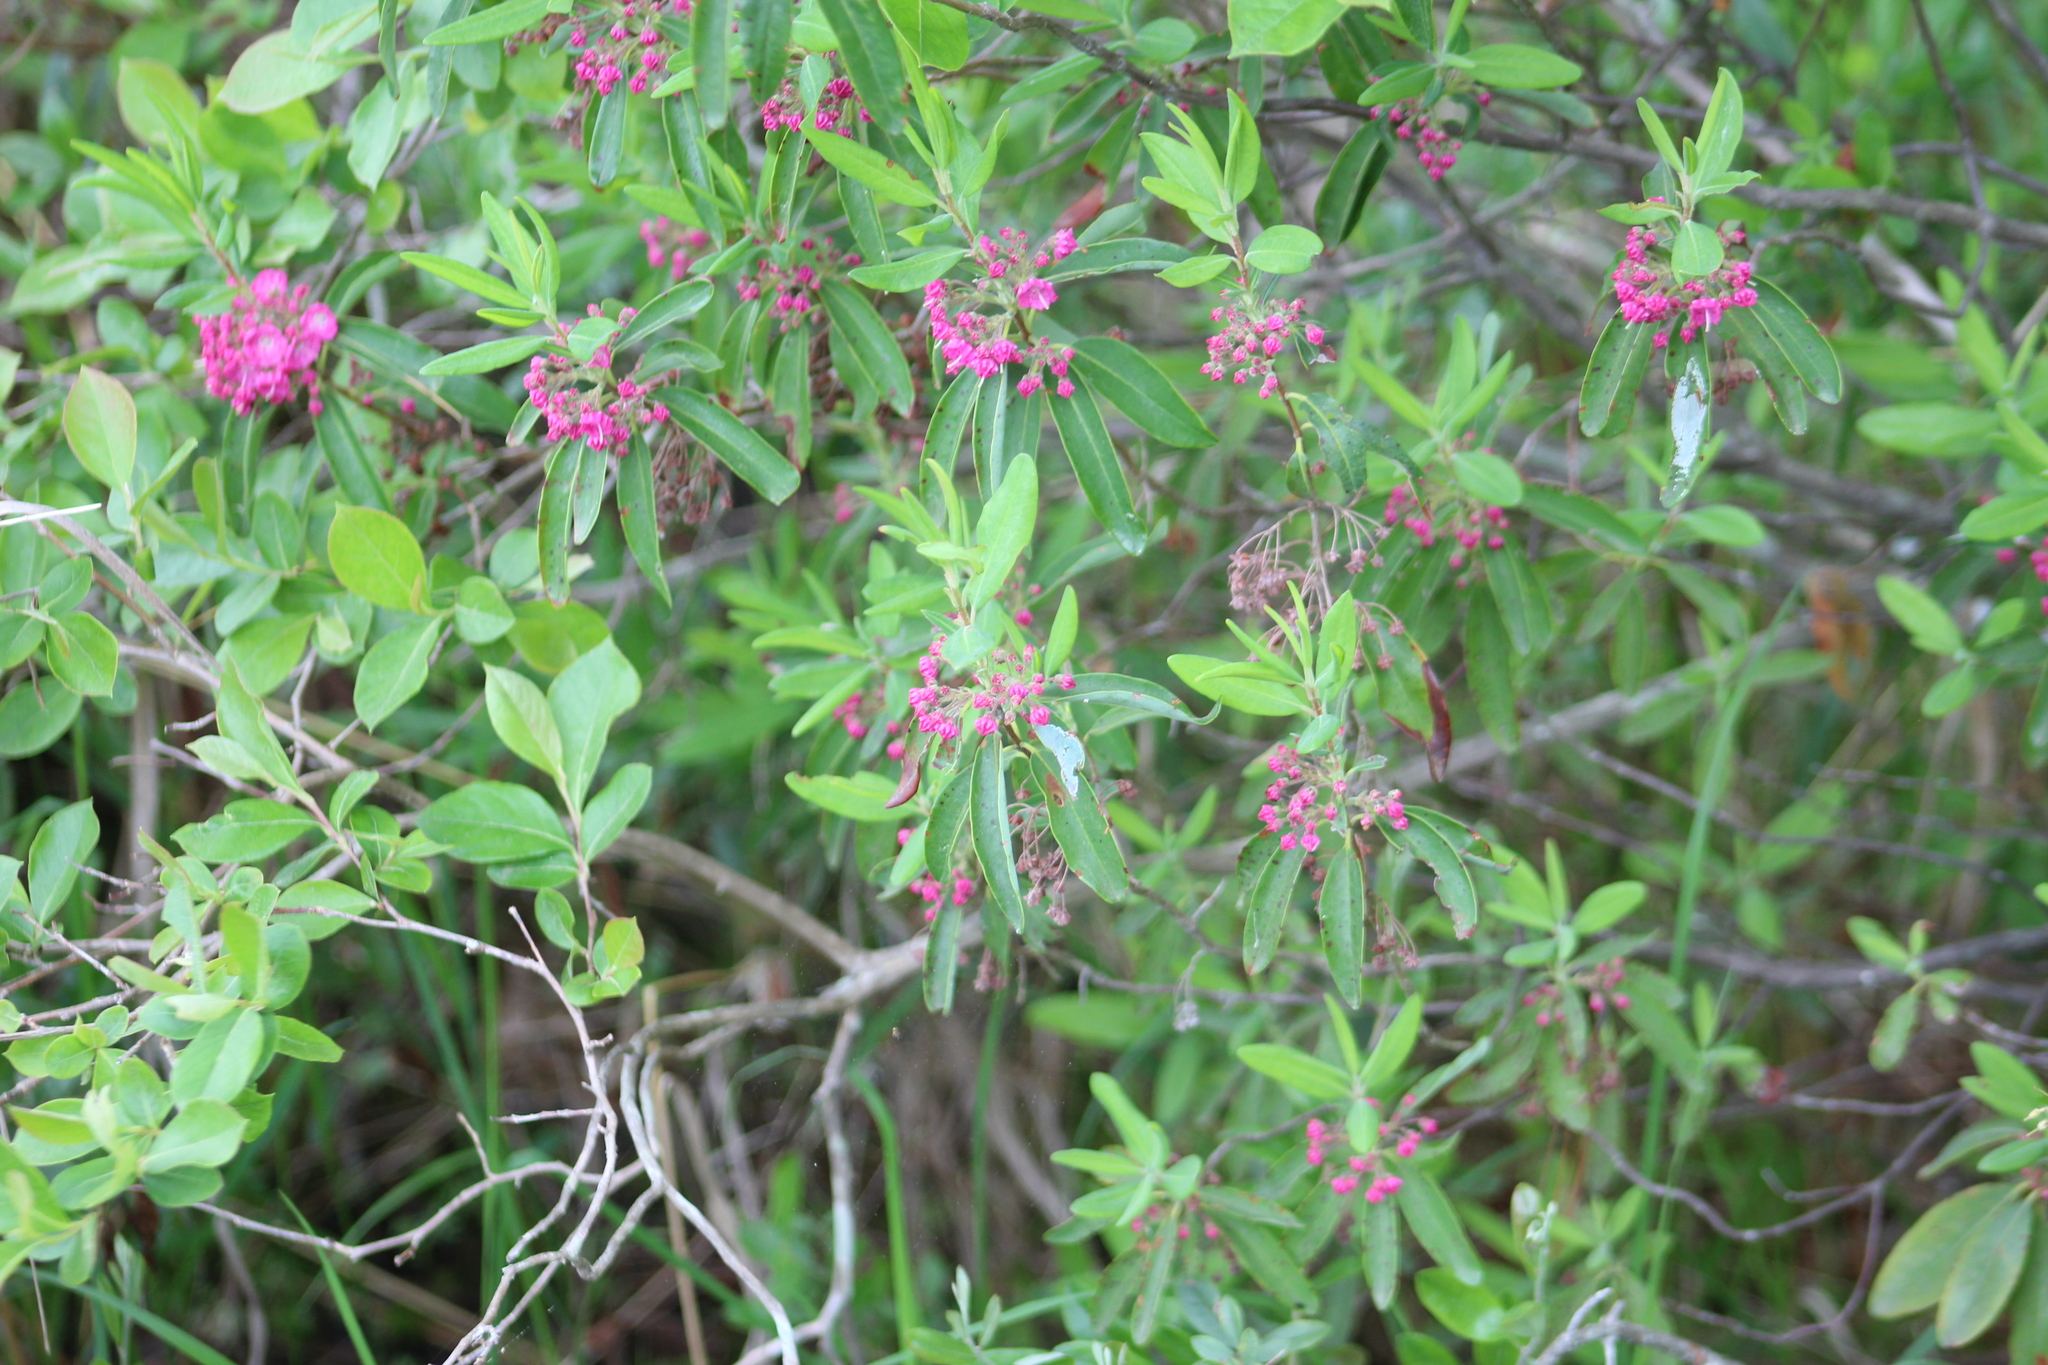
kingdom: Plantae
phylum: Tracheophyta
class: Magnoliopsida
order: Ericales
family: Ericaceae
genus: Kalmia
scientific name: Kalmia angustifolia
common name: Sheep-laurel
